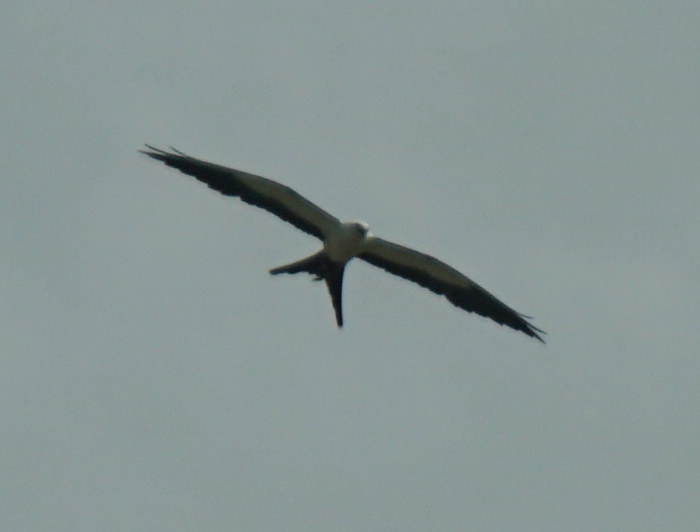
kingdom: Animalia
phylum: Chordata
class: Aves
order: Accipitriformes
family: Accipitridae
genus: Elanoides
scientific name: Elanoides forficatus
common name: Swallow-tailed kite
